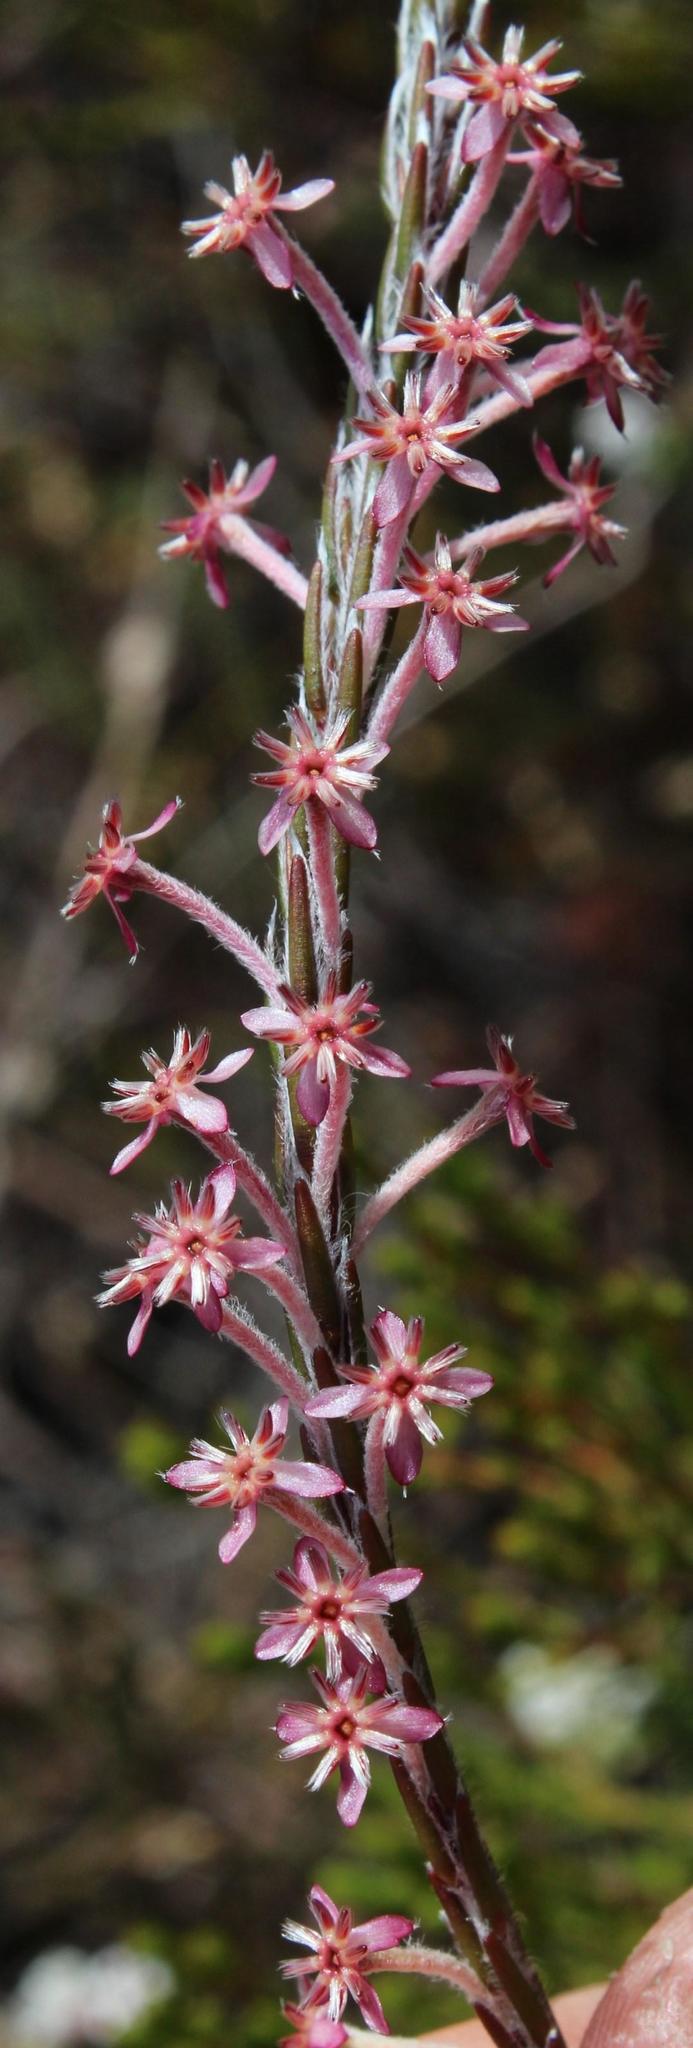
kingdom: Plantae
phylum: Tracheophyta
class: Magnoliopsida
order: Malvales
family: Thymelaeaceae
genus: Struthiola
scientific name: Struthiola ciliata
